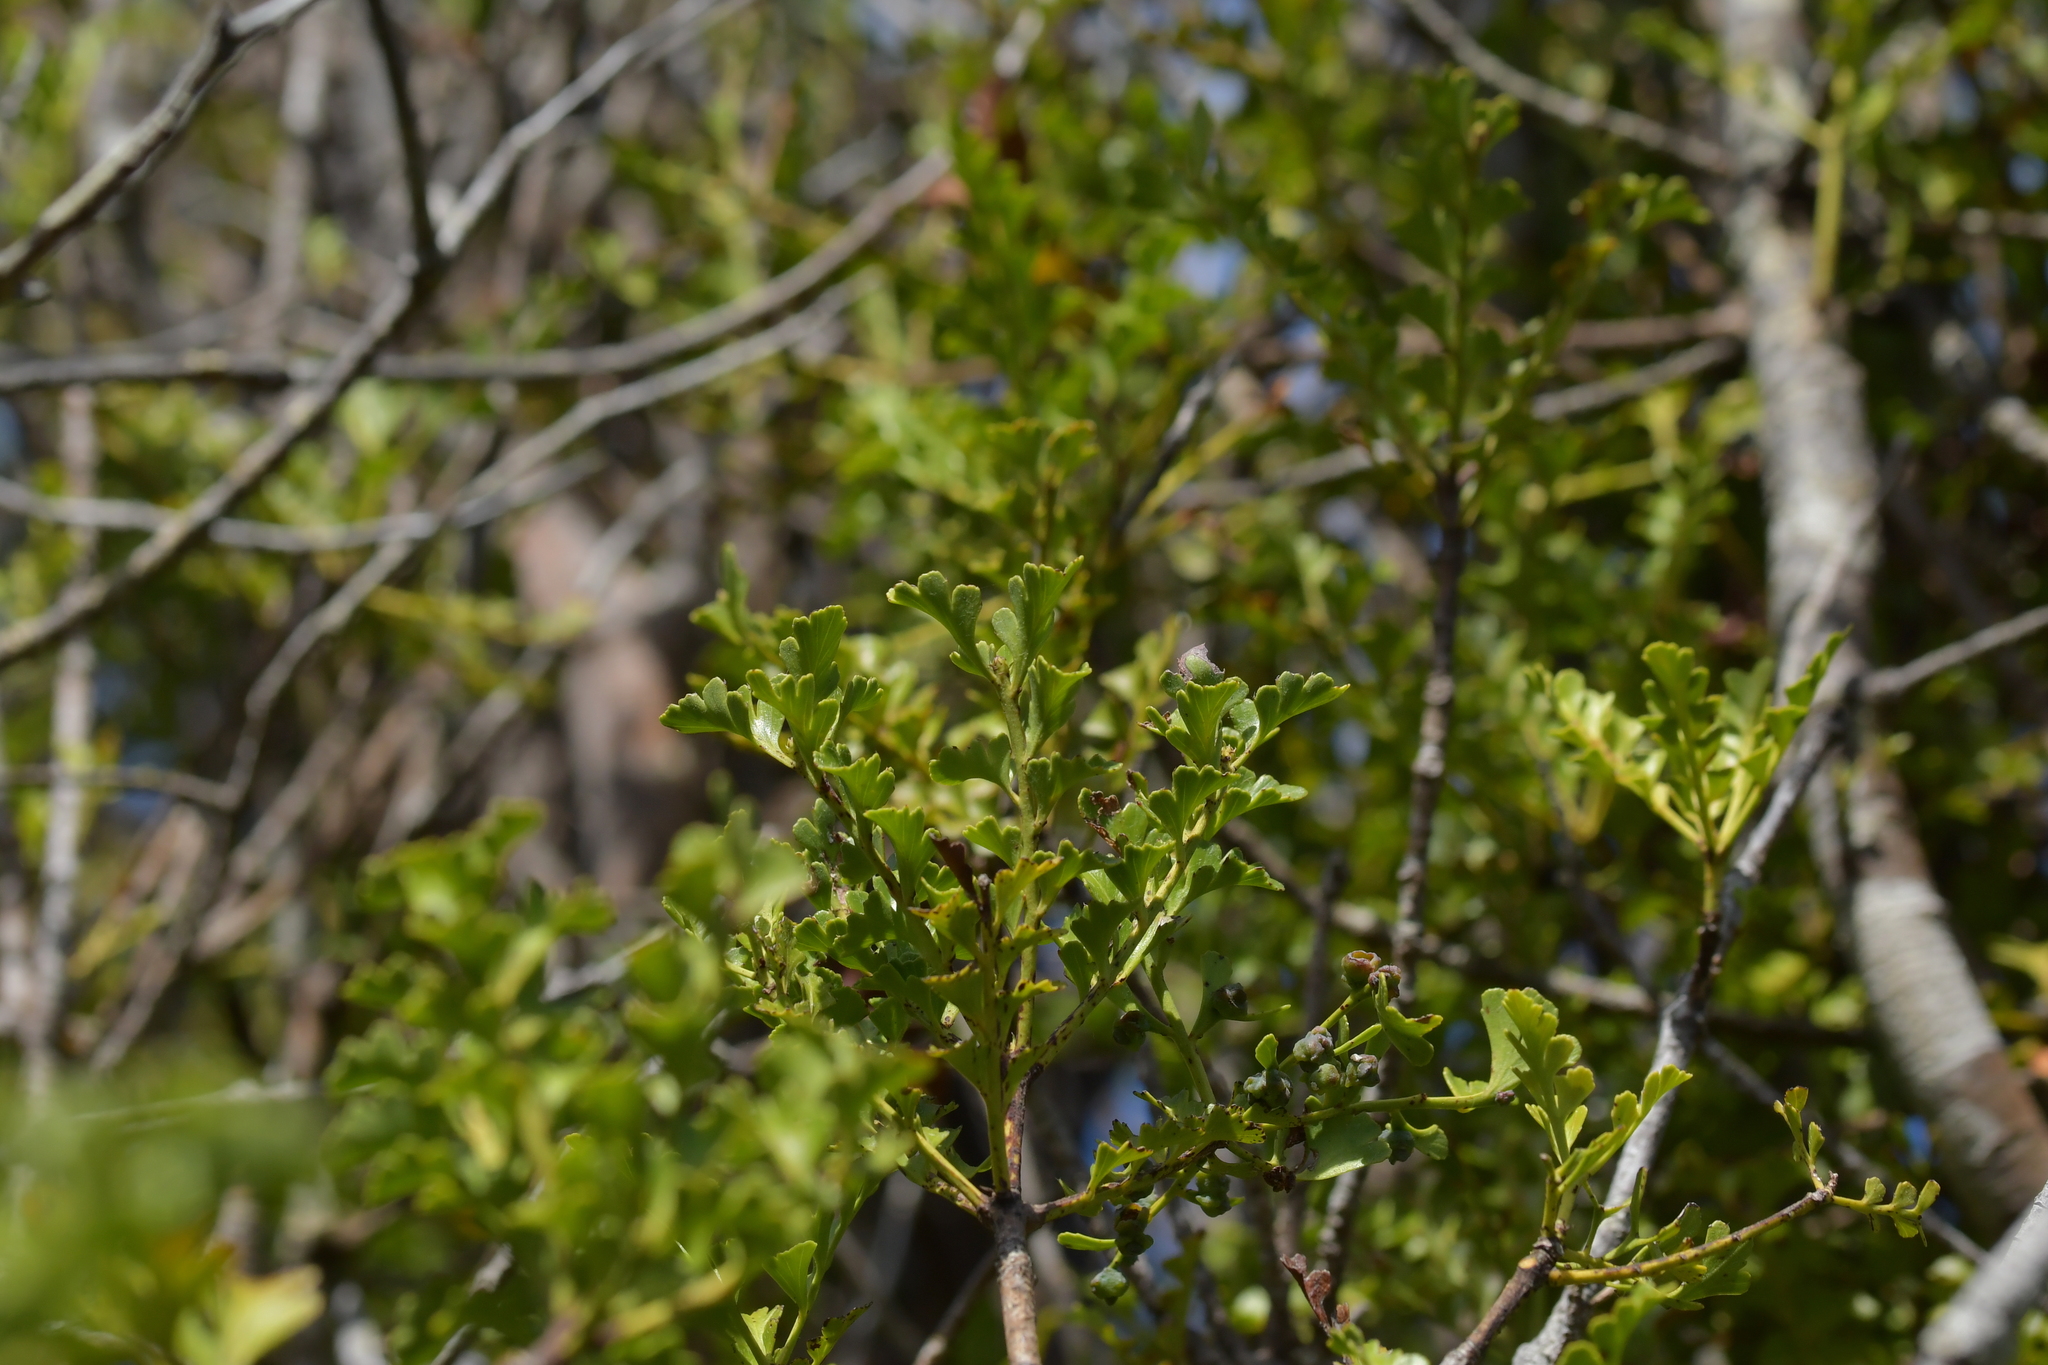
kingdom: Plantae
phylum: Tracheophyta
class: Pinopsida
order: Pinales
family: Phyllocladaceae
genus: Phyllocladus
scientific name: Phyllocladus trichomanoides
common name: Celery pine
